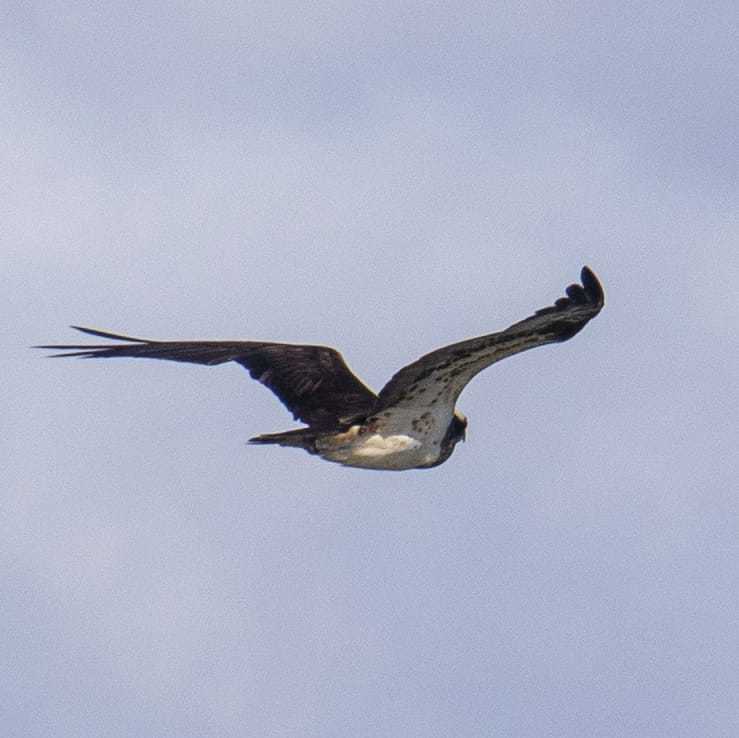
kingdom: Animalia
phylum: Chordata
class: Aves
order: Accipitriformes
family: Pandionidae
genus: Pandion
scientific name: Pandion haliaetus
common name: Osprey
